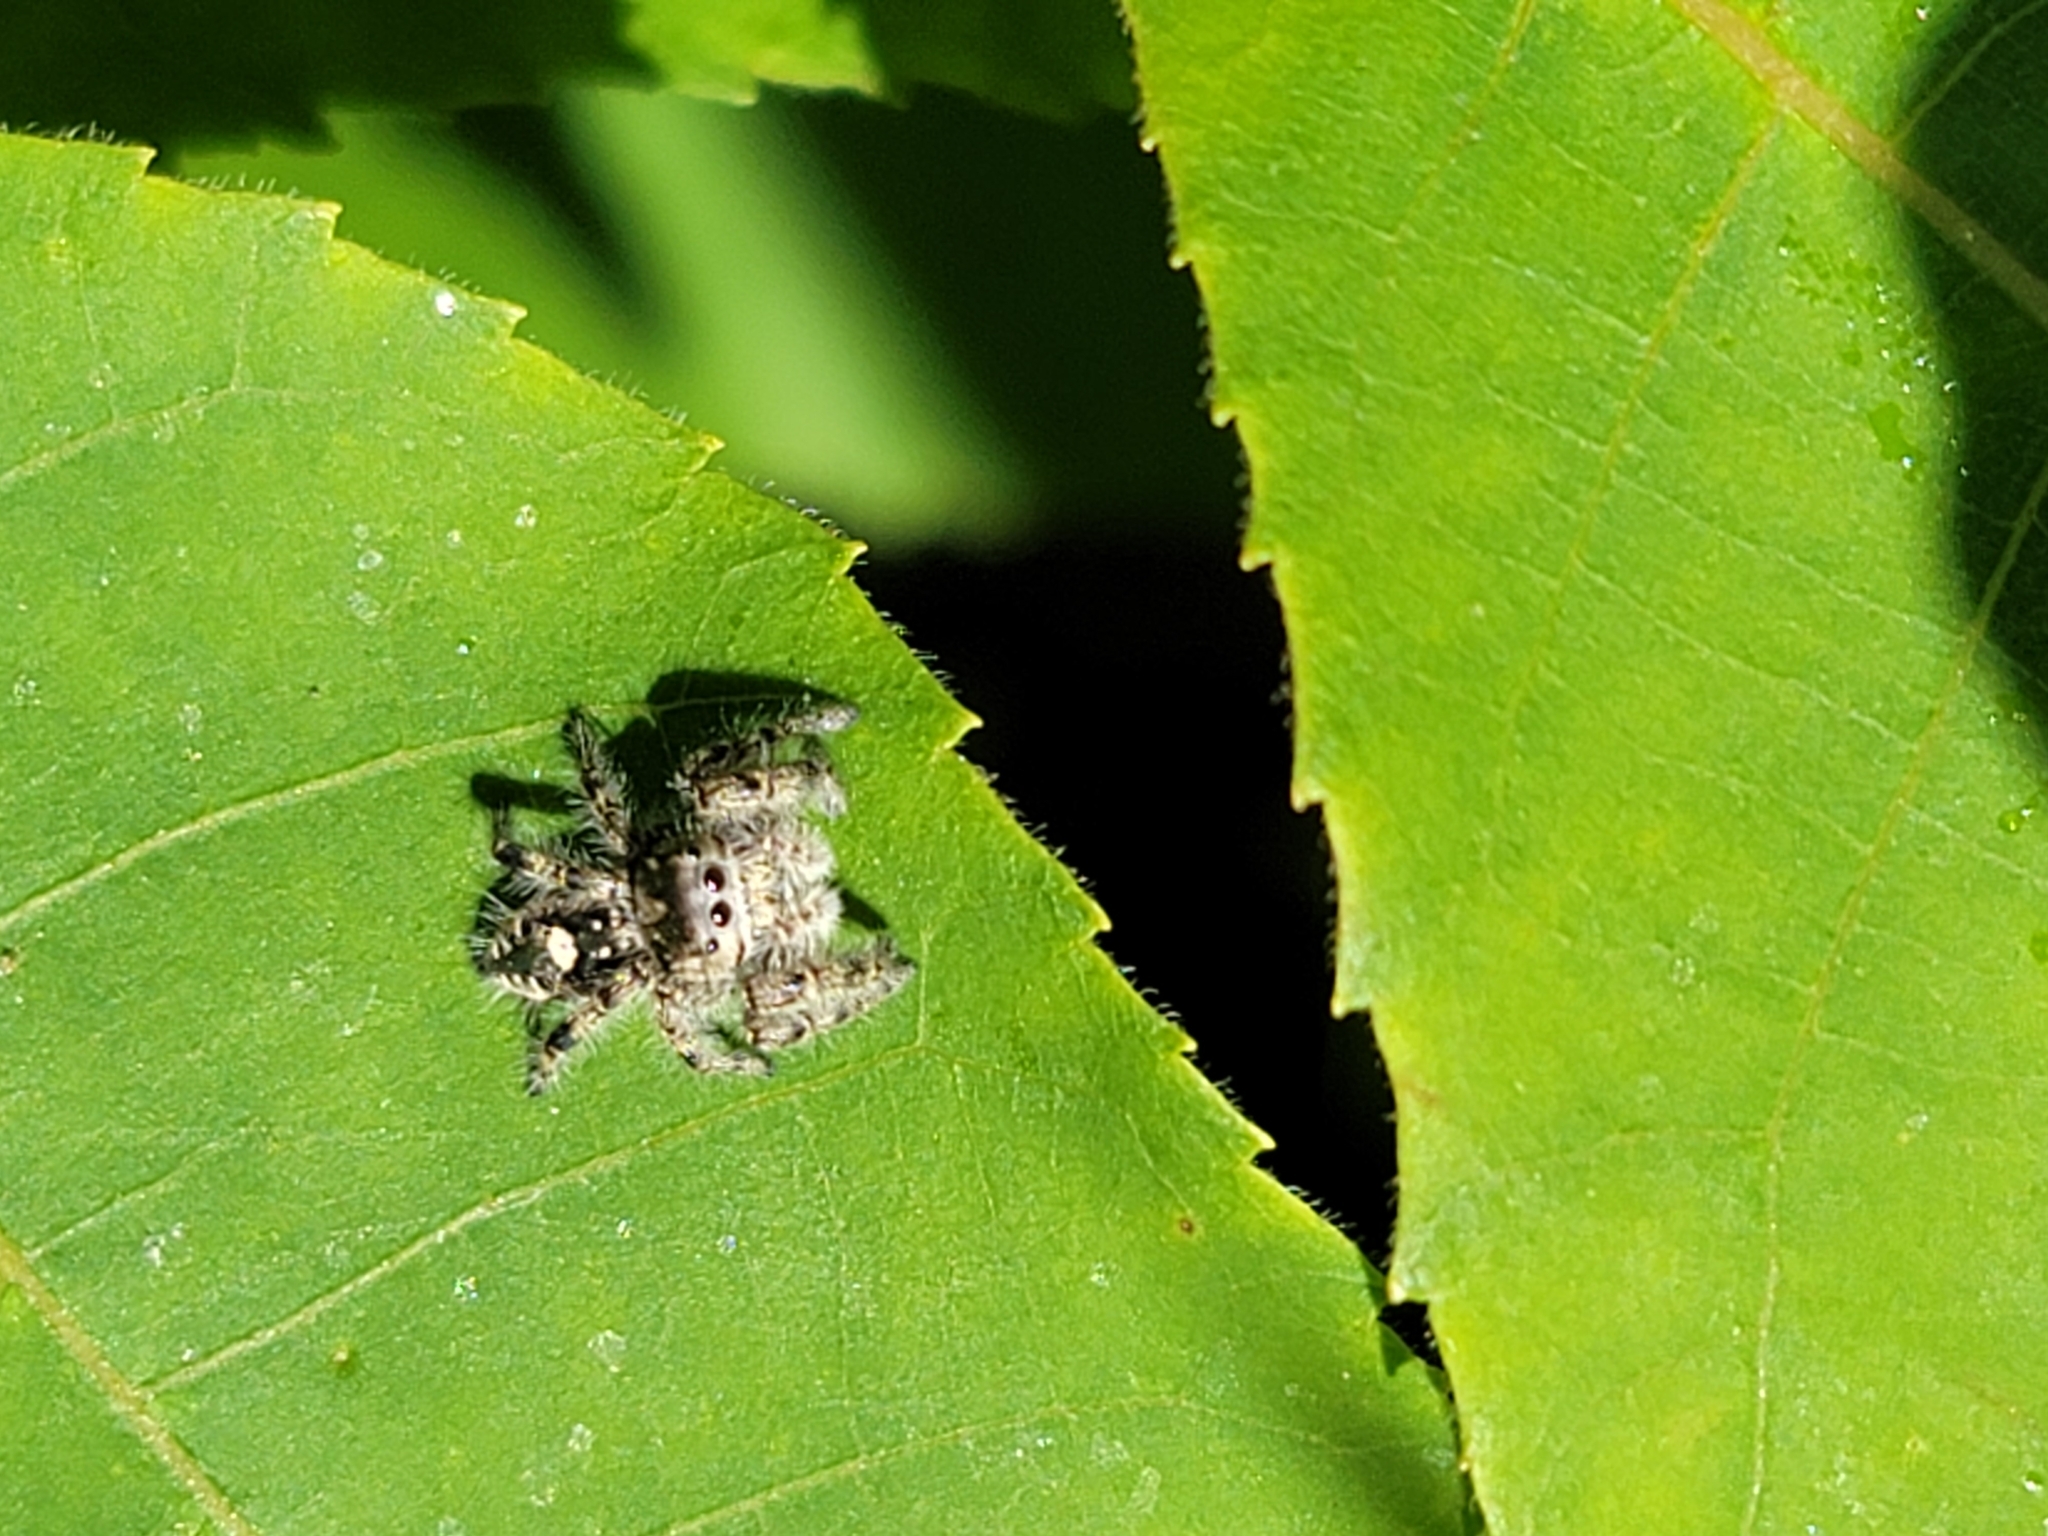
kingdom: Animalia
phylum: Arthropoda
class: Arachnida
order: Araneae
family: Salticidae
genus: Phidippus
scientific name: Phidippus putnami
